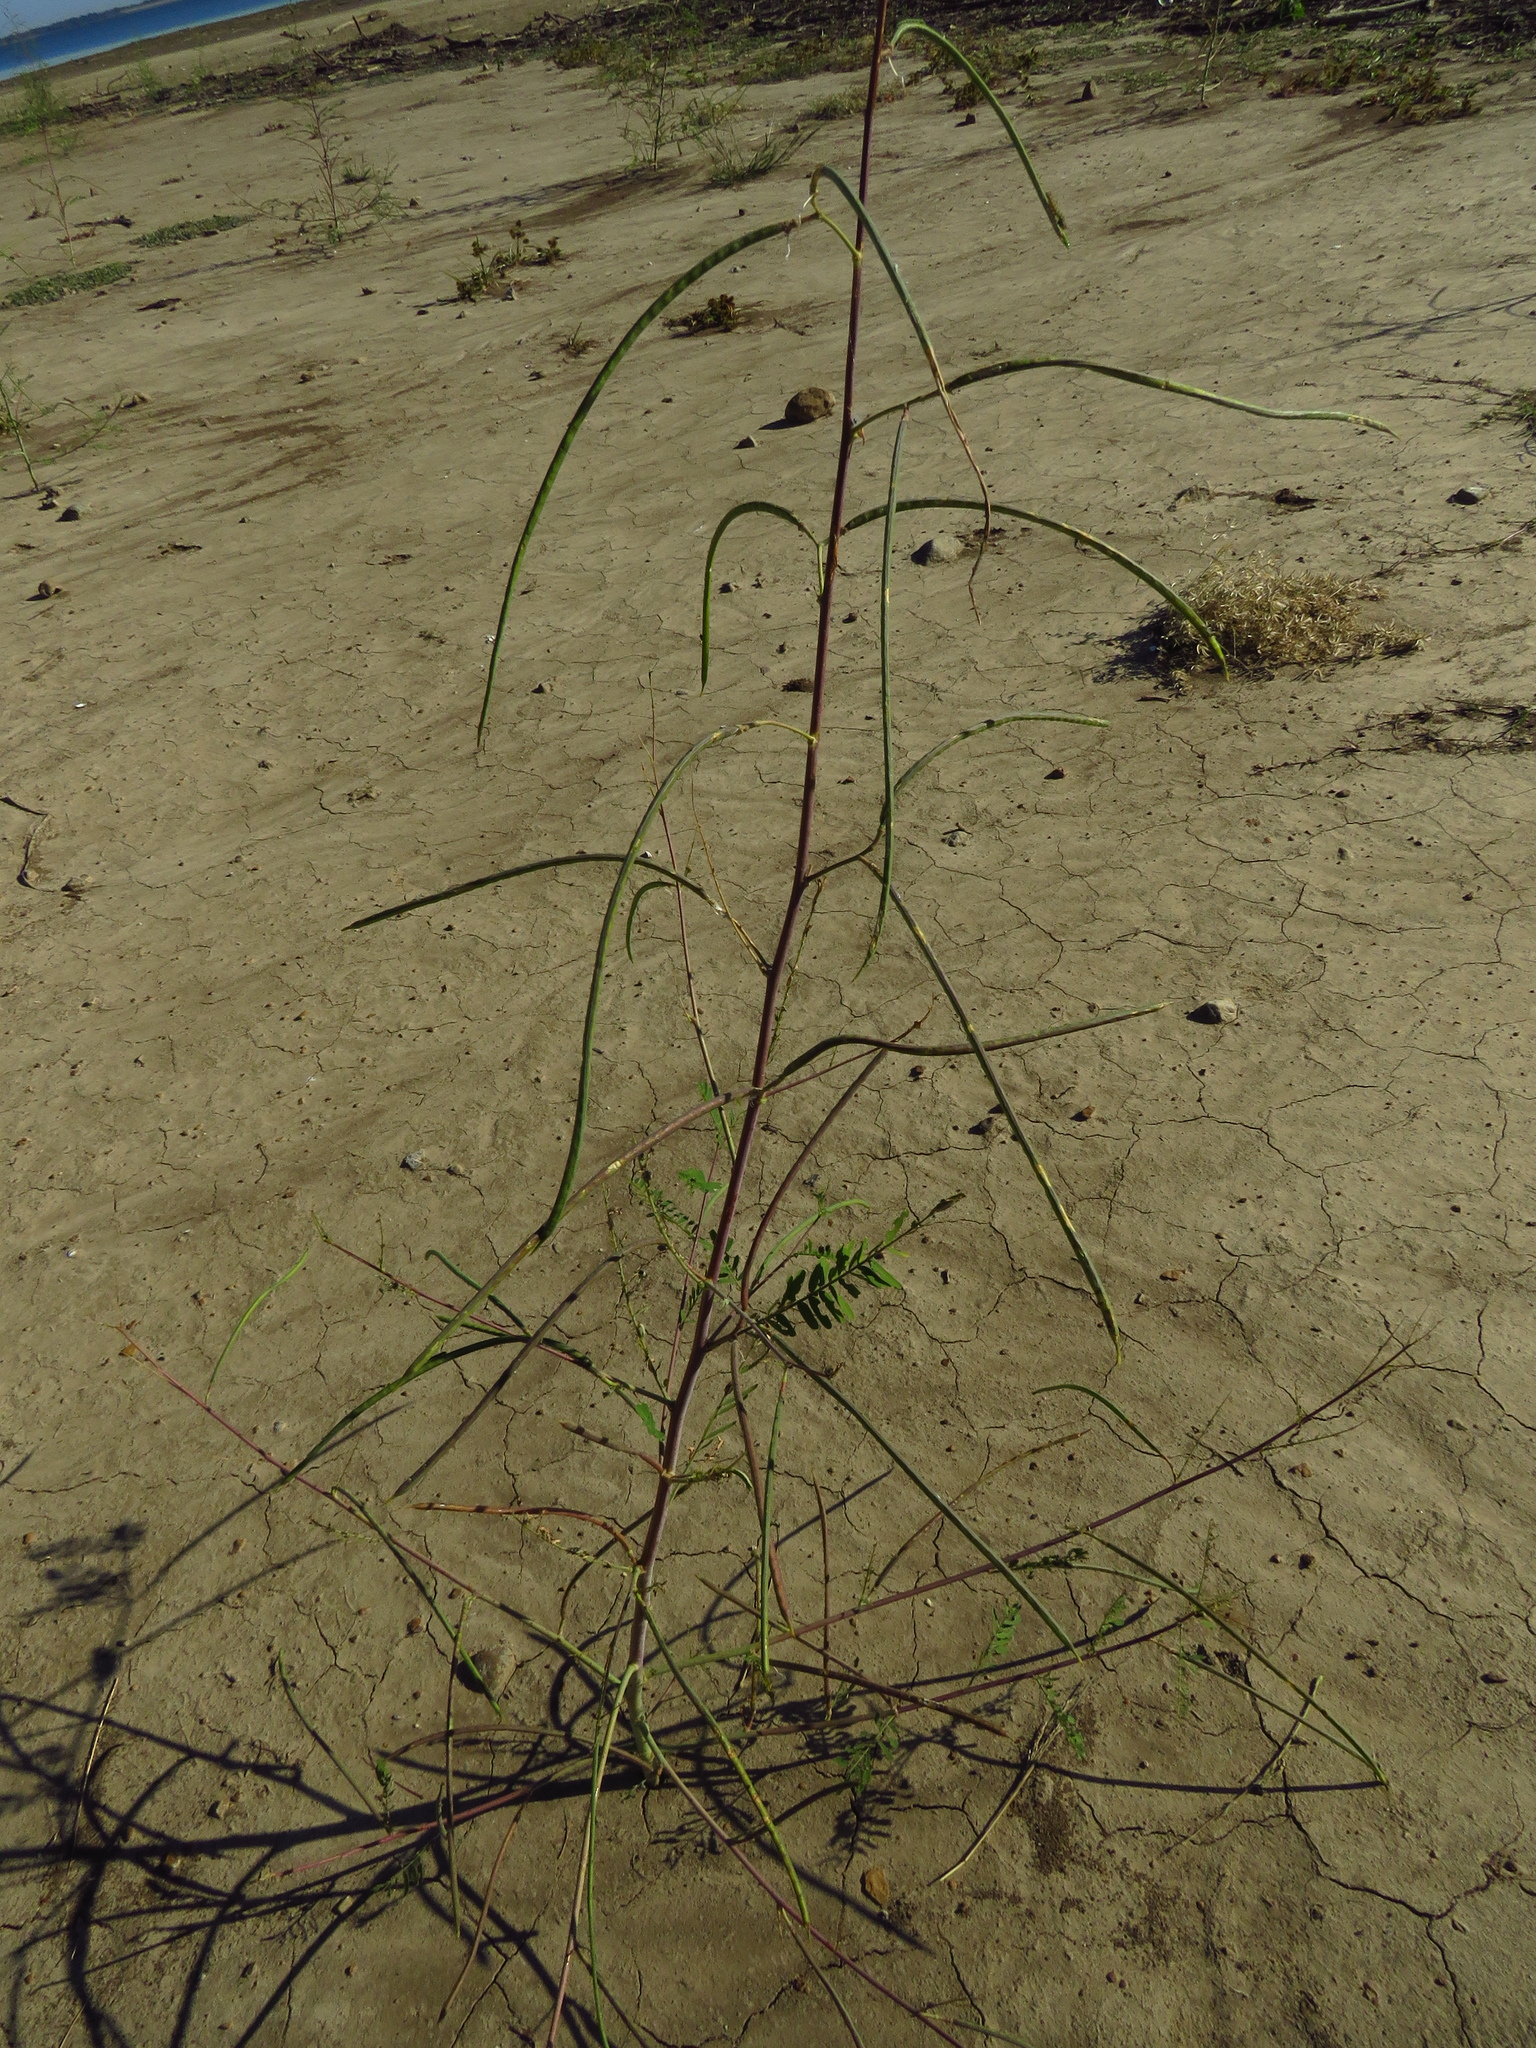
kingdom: Plantae
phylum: Tracheophyta
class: Magnoliopsida
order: Fabales
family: Fabaceae
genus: Sesbania
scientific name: Sesbania herbacea
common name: Bigpod sesbania
